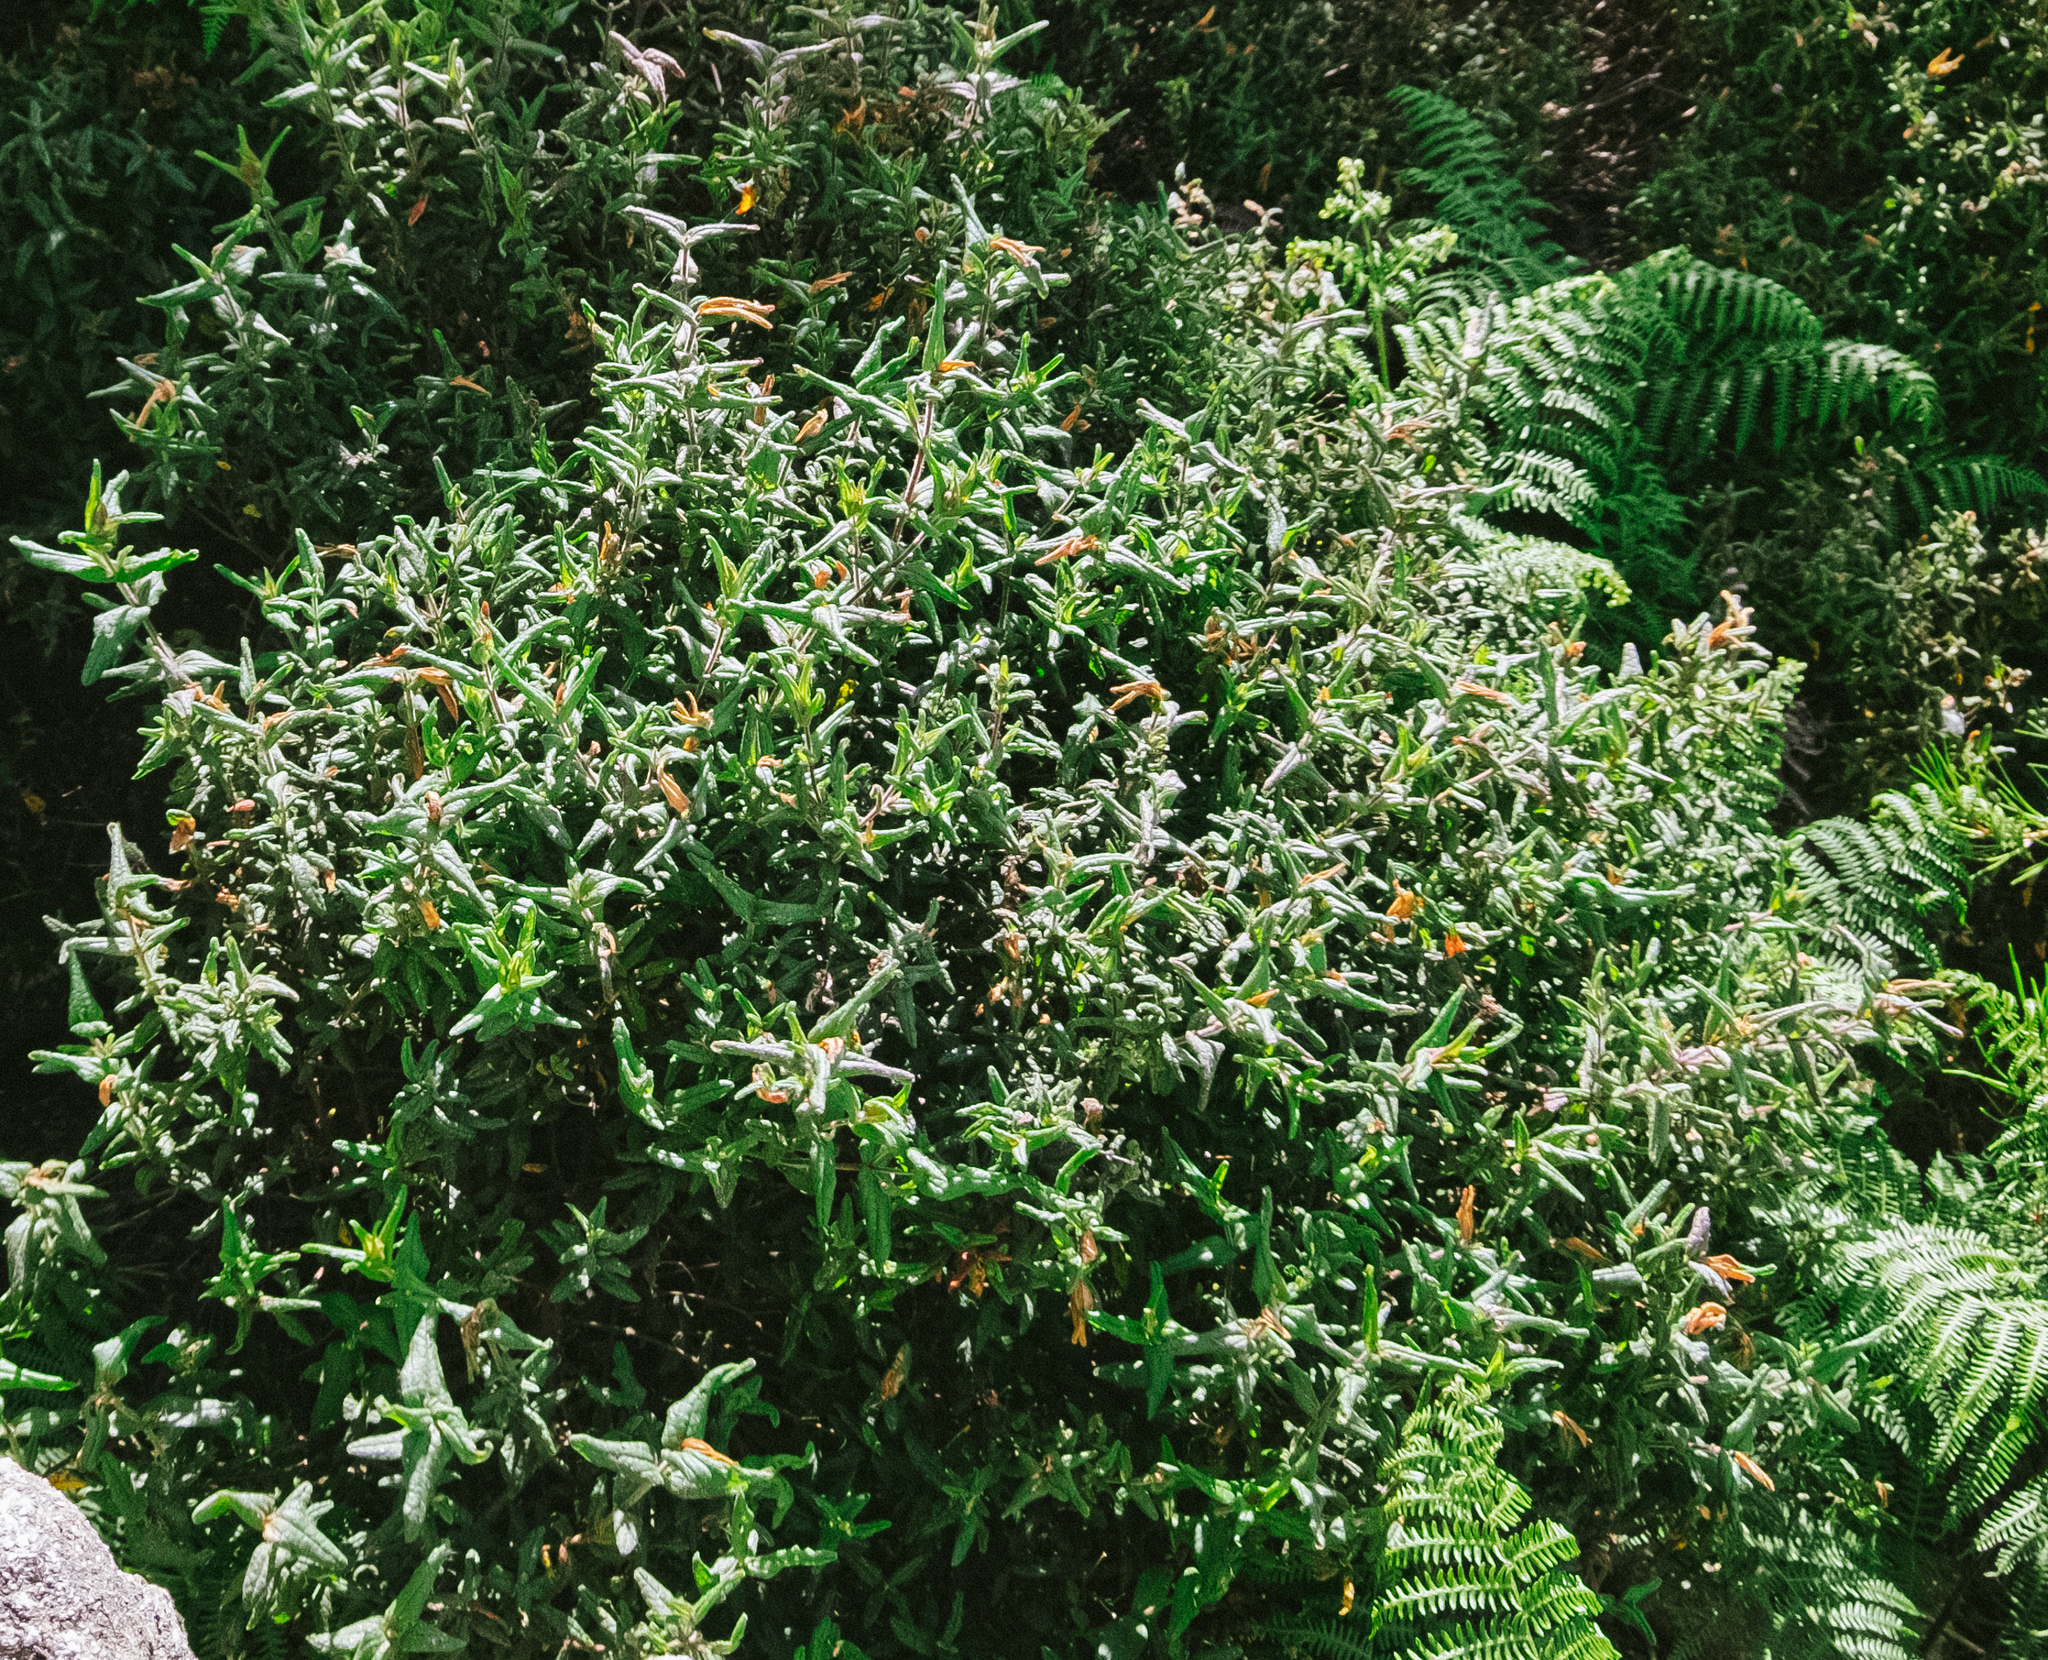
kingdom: Plantae
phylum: Tracheophyta
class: Magnoliopsida
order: Malvales
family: Cistaceae
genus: Cistus
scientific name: Cistus inflatus
